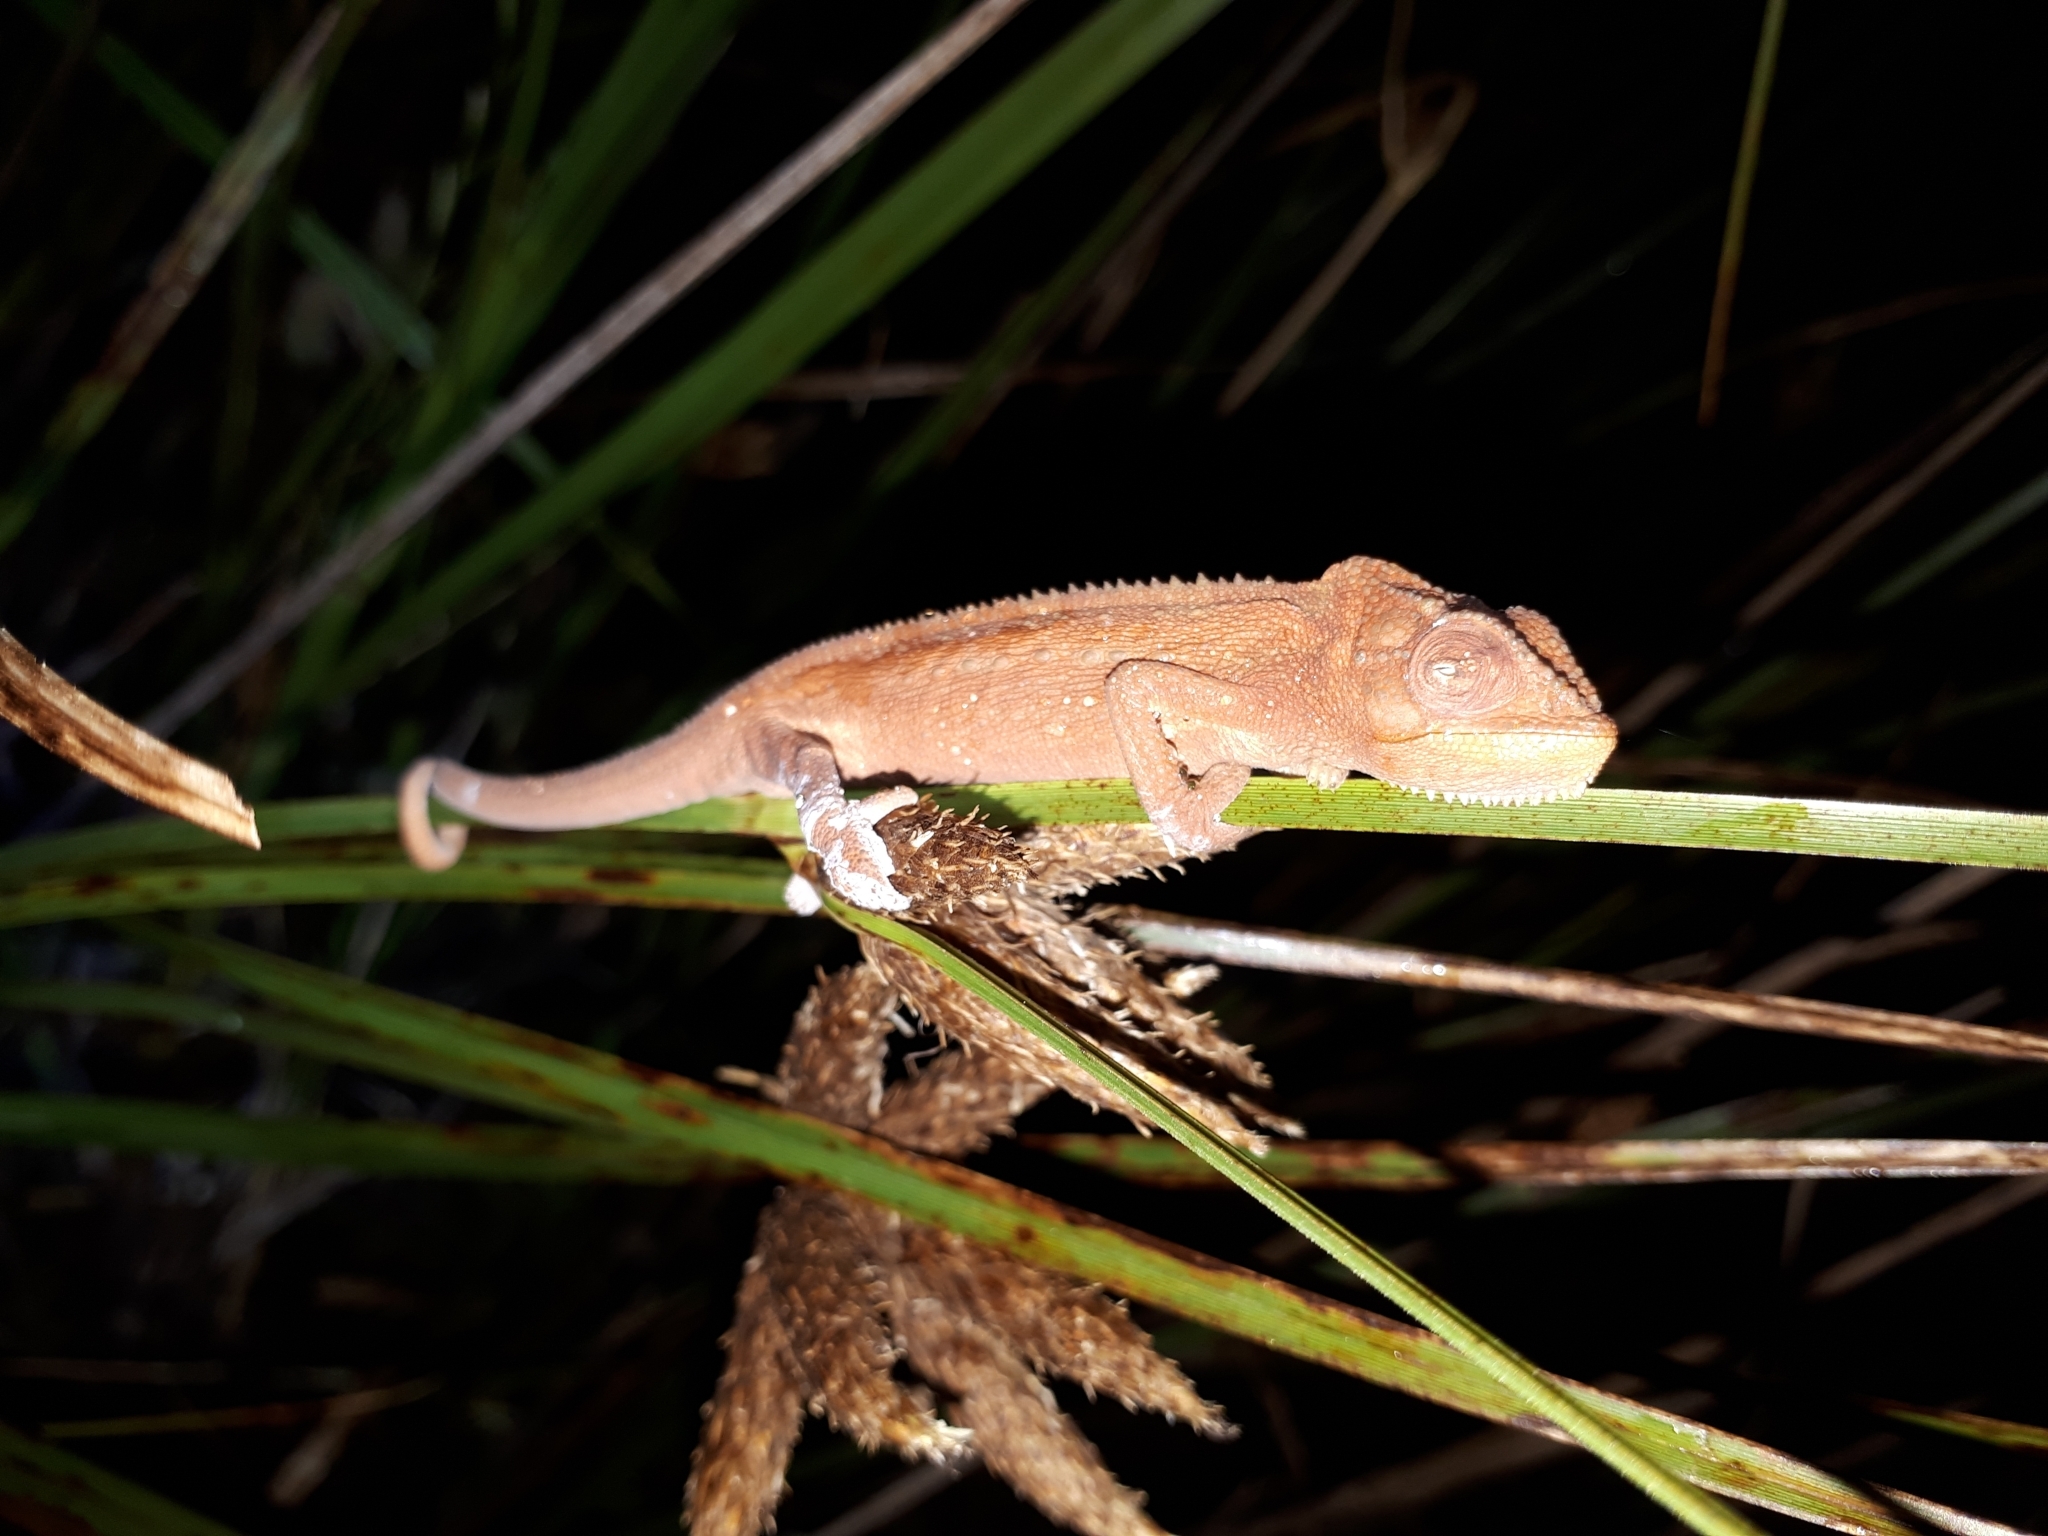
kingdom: Animalia
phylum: Chordata
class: Squamata
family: Chamaeleonidae
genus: Bradypodion
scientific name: Bradypodion pumilum
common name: Cape dwarf chameleon
